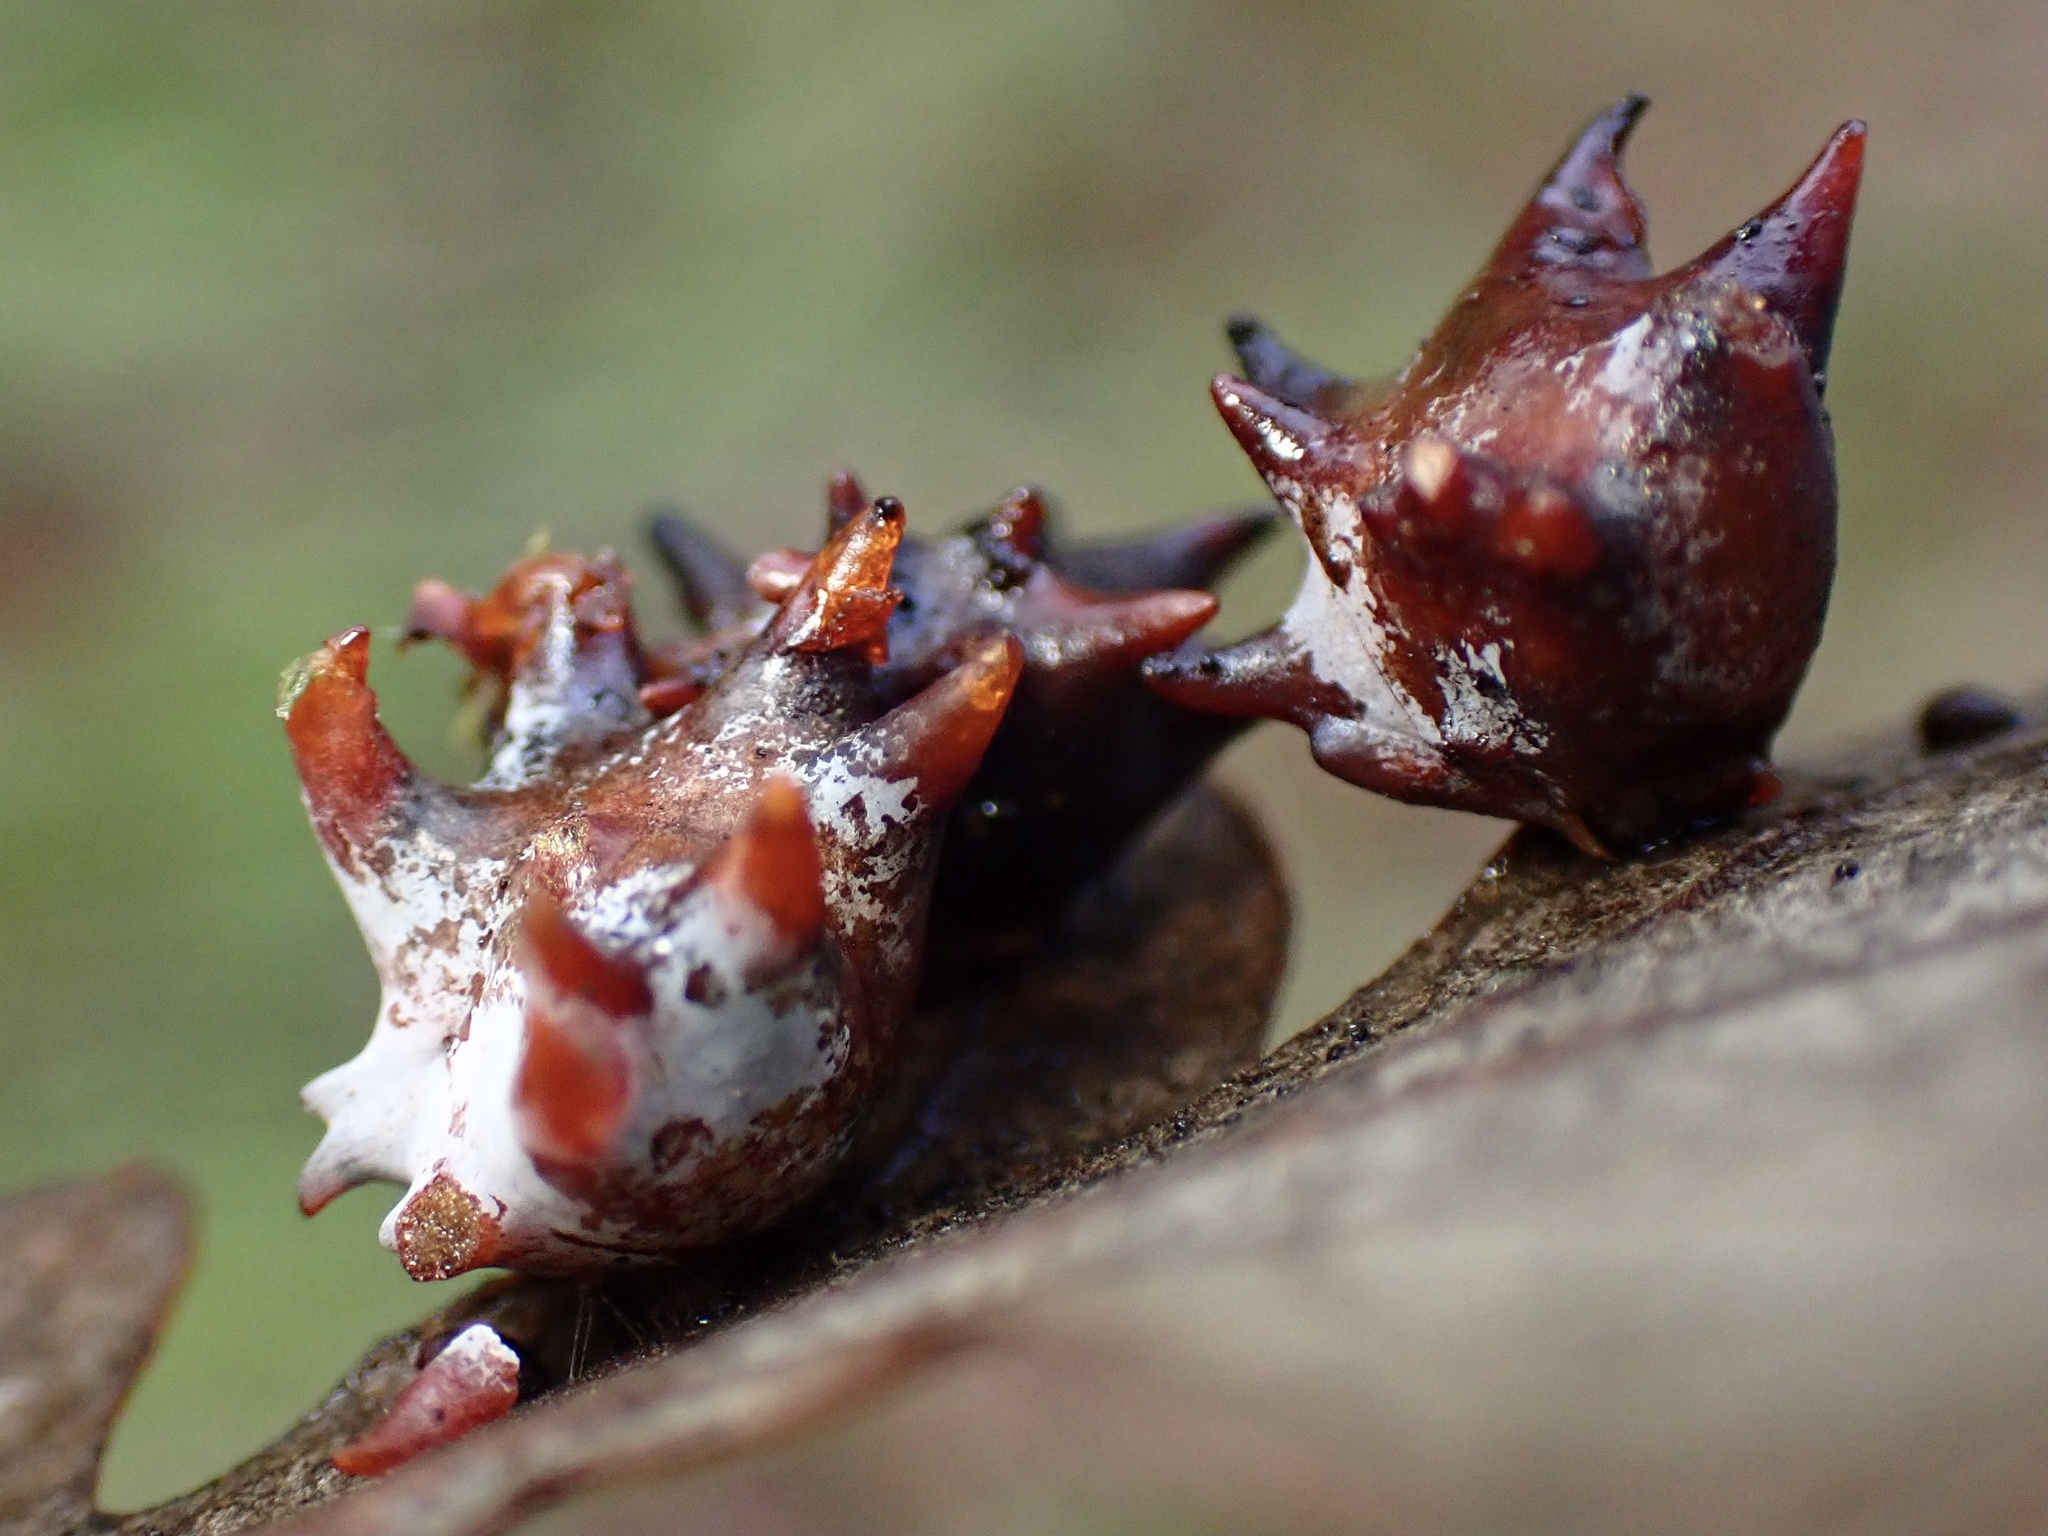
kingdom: Animalia
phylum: Arthropoda
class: Insecta
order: Hymenoptera
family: Cynipidae
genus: Cynips
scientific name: Cynips douglasi
